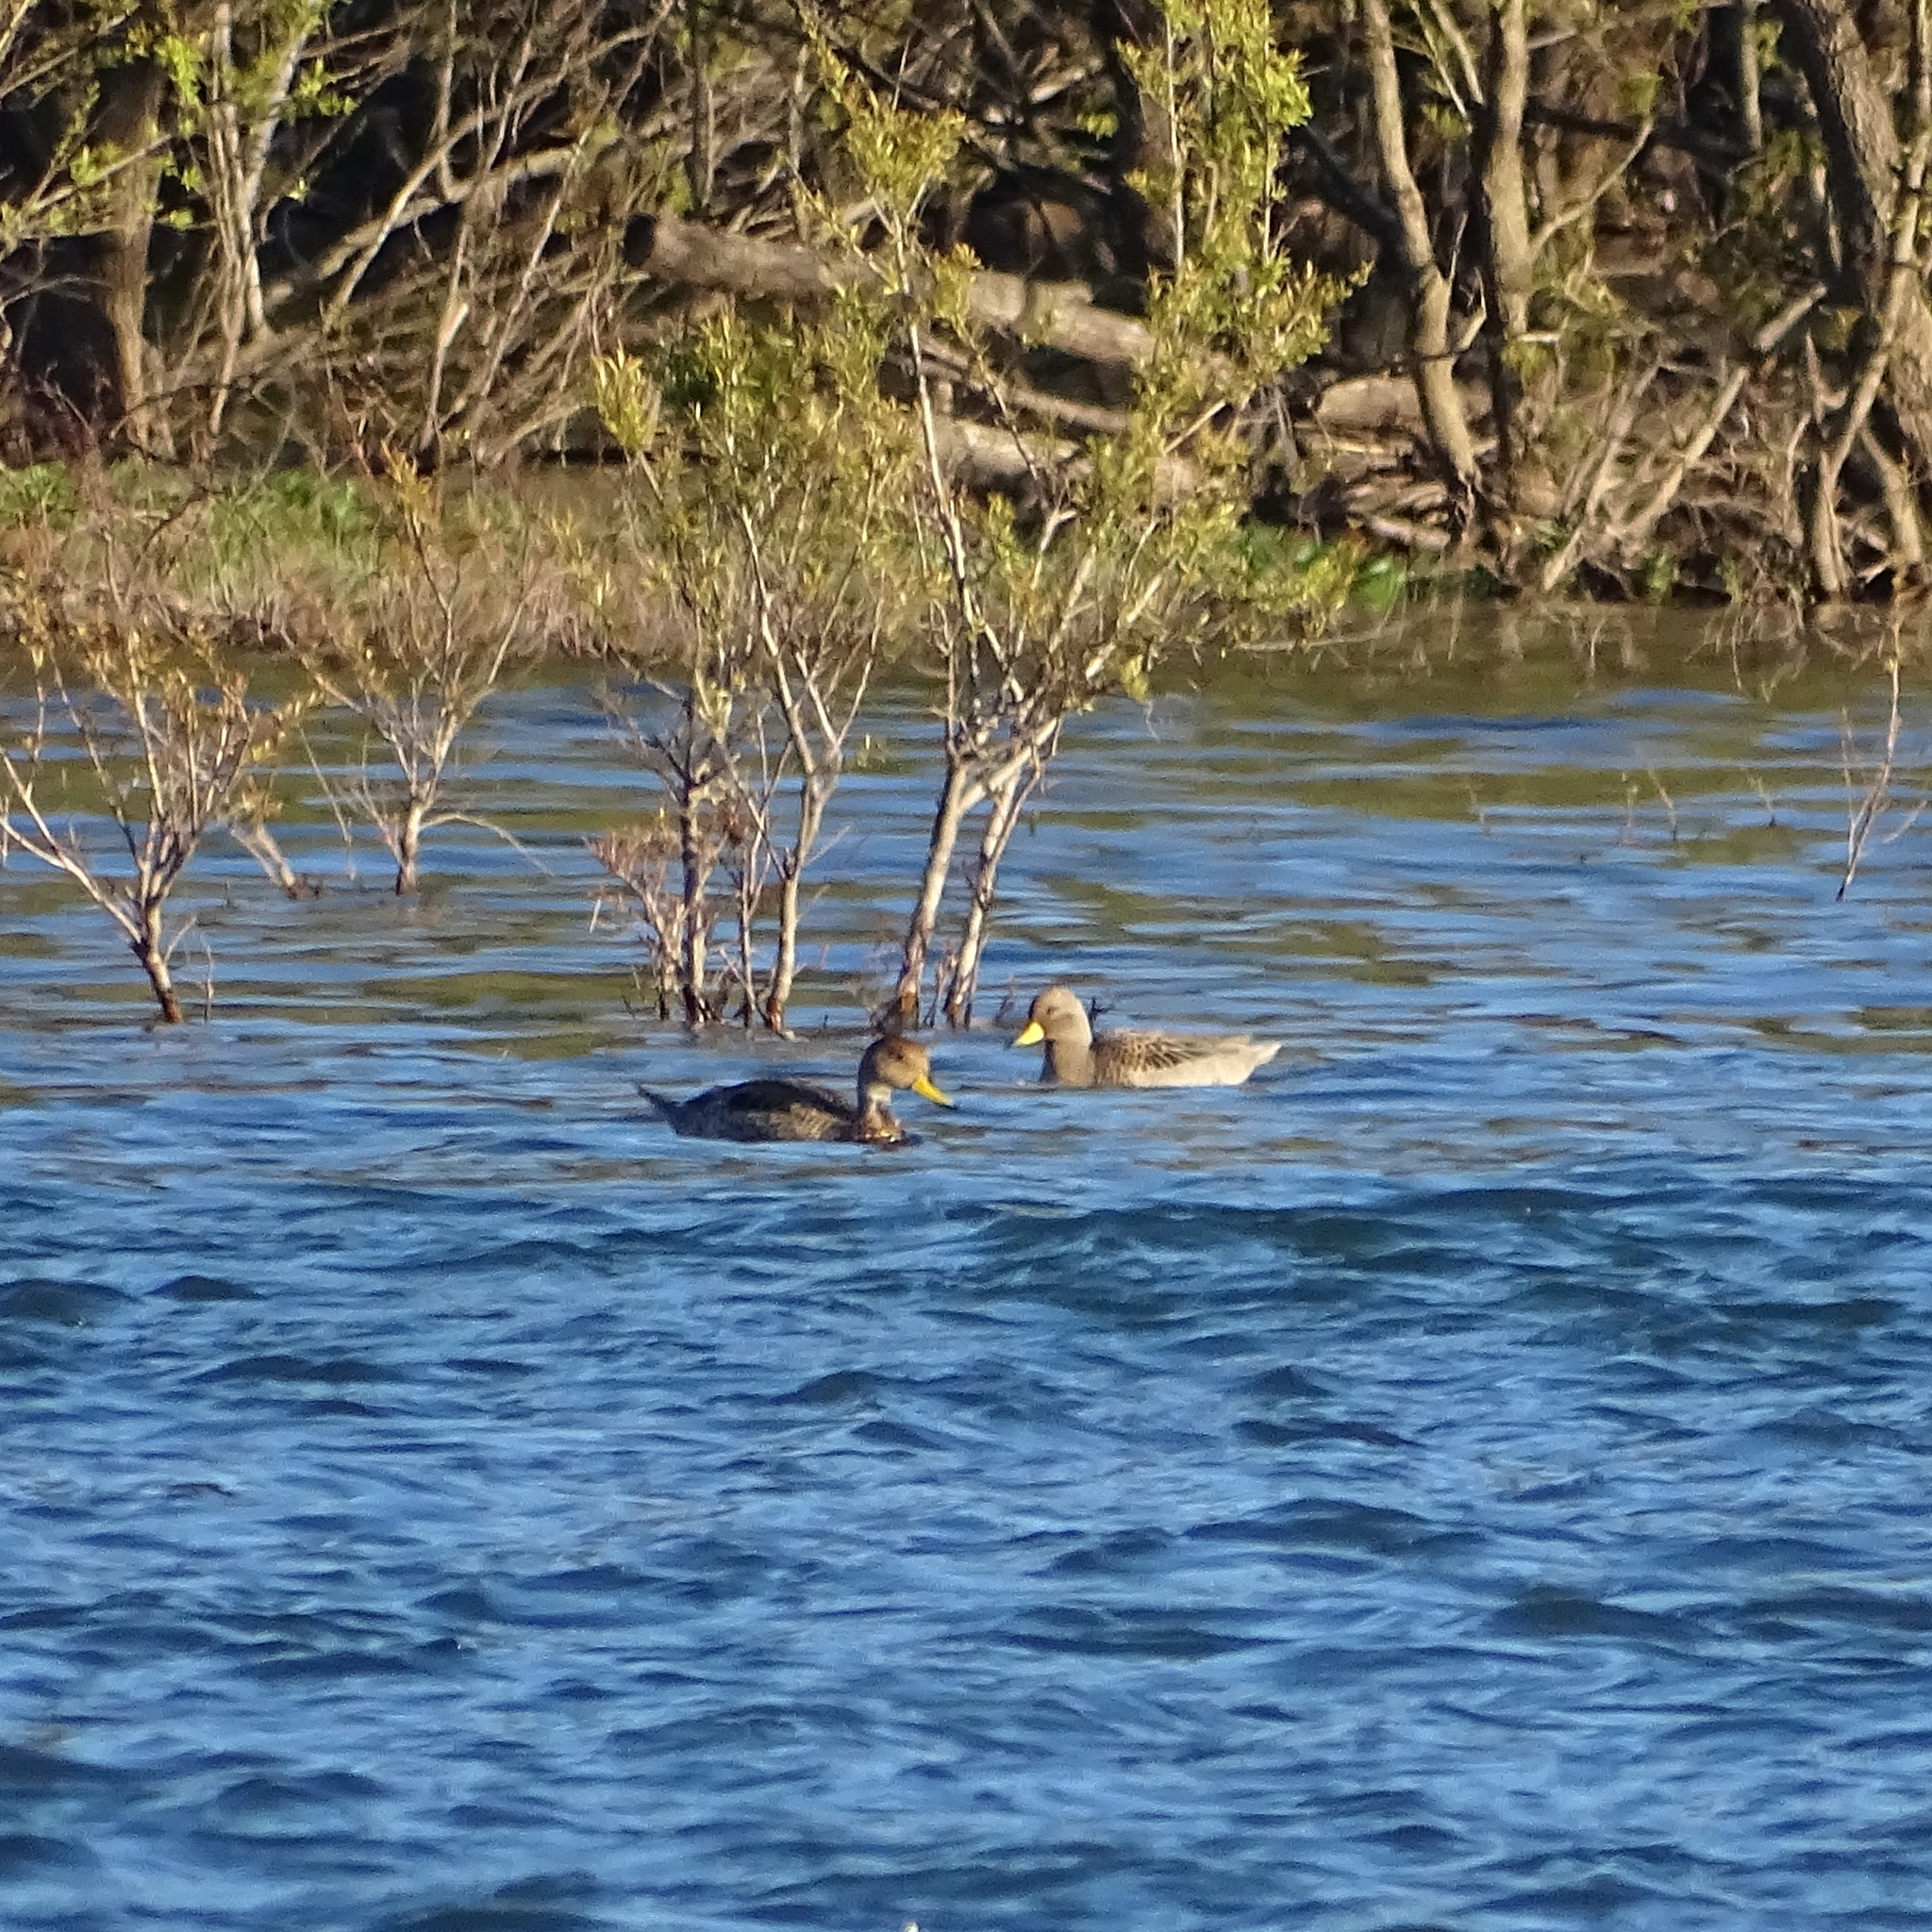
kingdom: Animalia
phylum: Chordata
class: Aves
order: Anseriformes
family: Anatidae
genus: Anas
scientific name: Anas georgica
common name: Yellow-billed pintail
